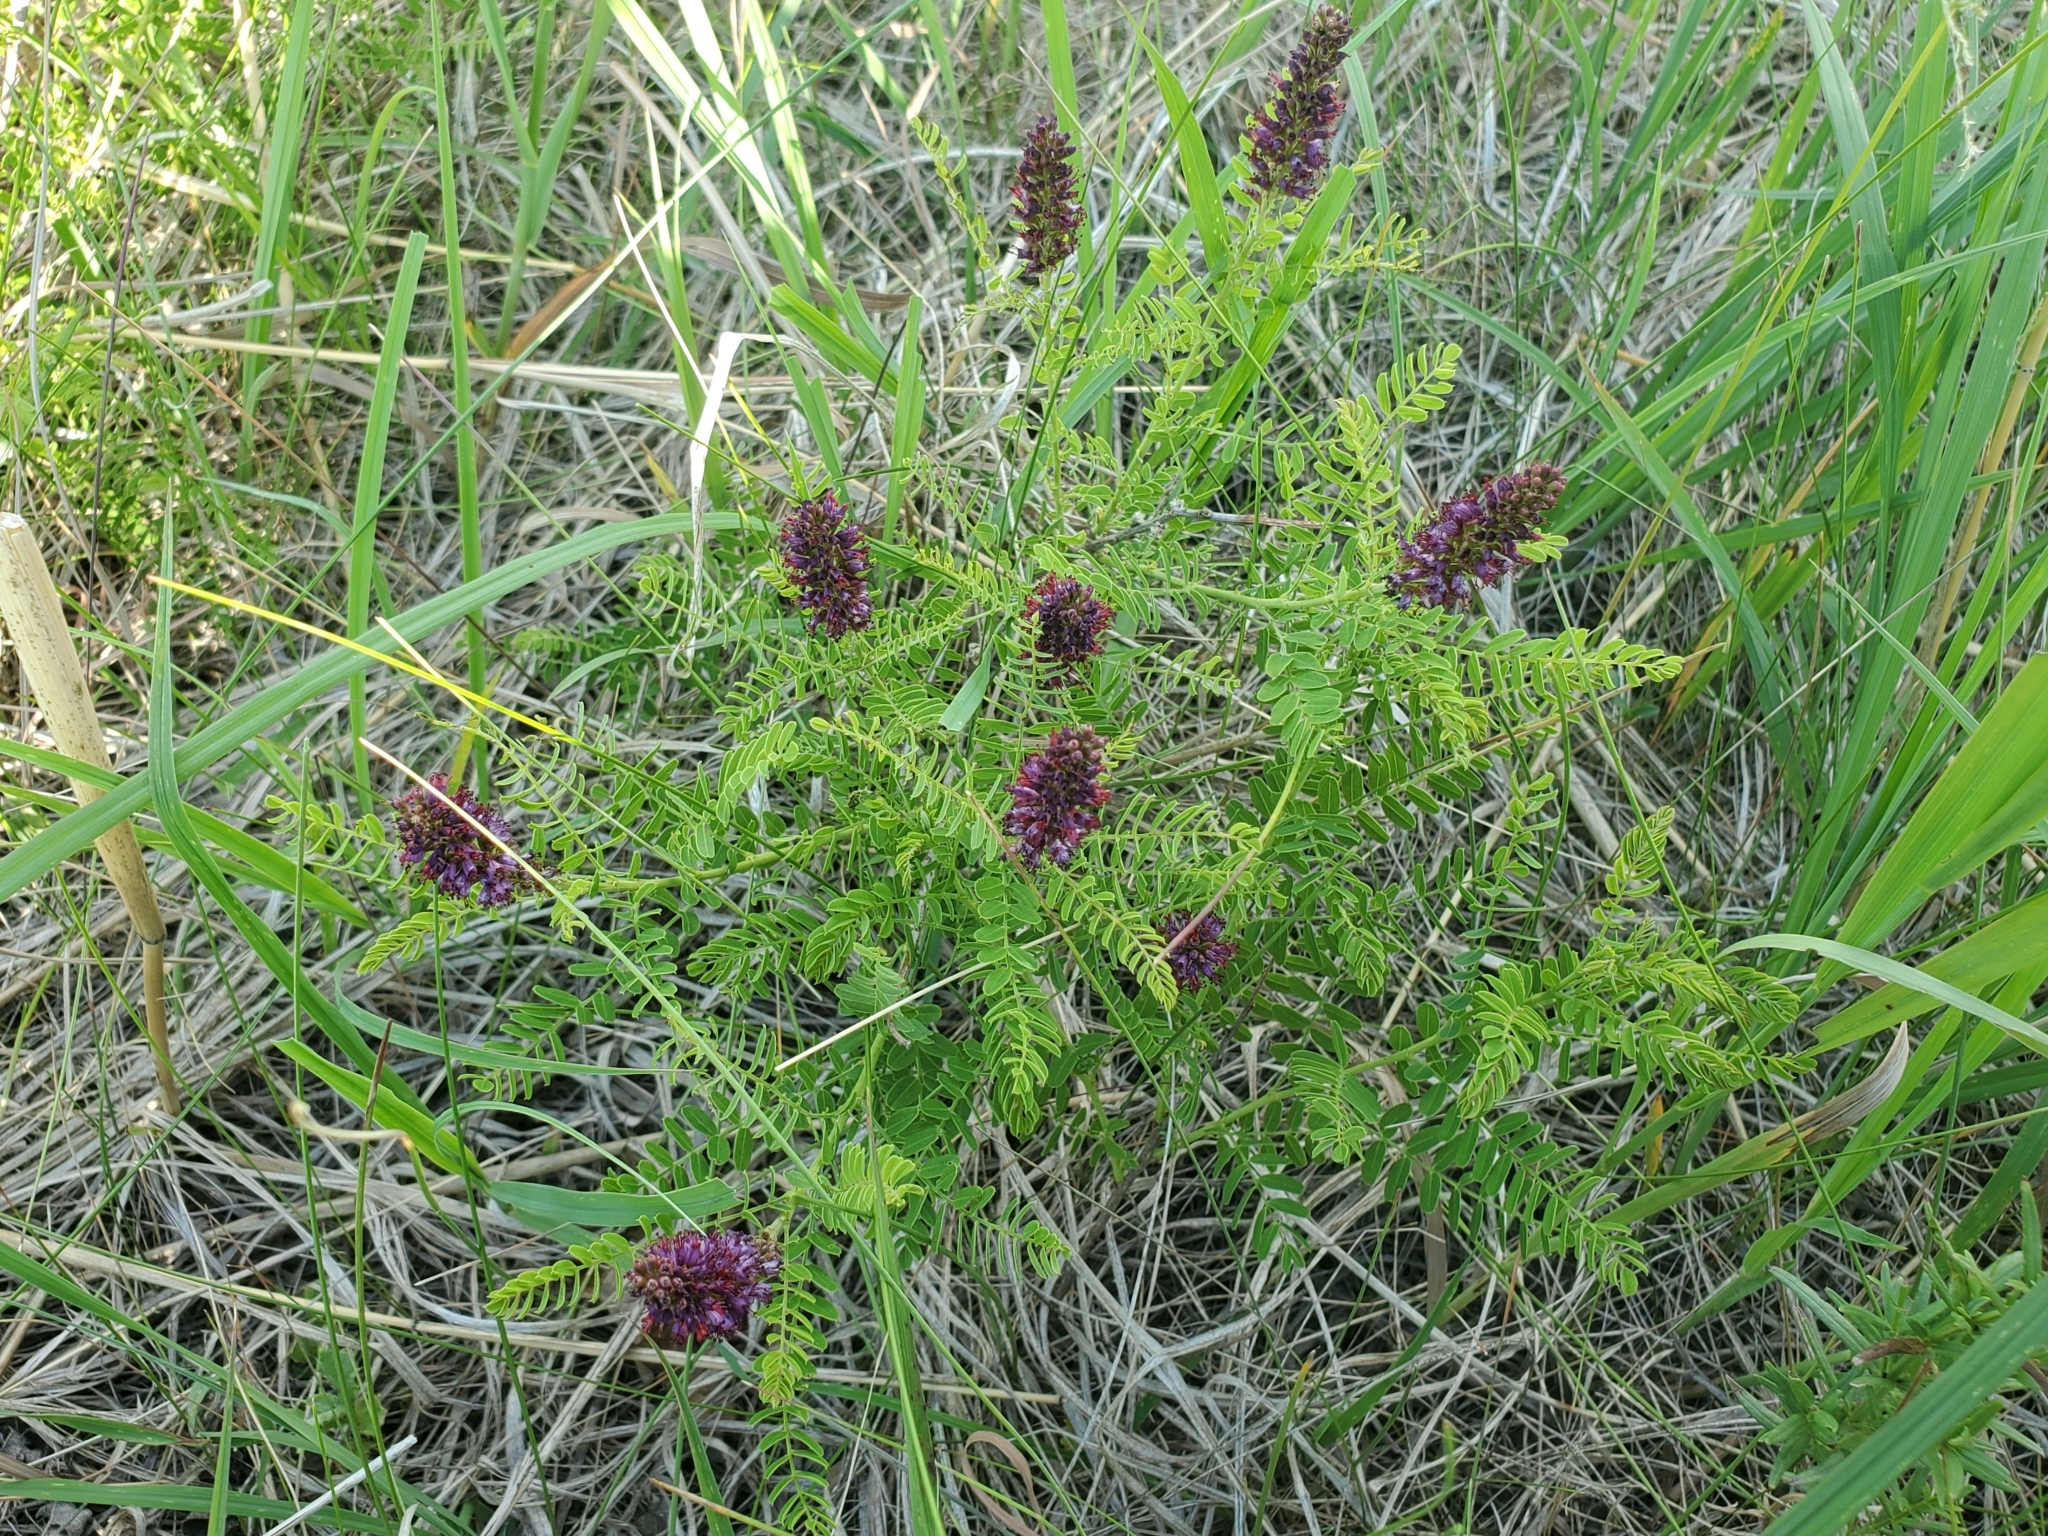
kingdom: Plantae
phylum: Tracheophyta
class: Magnoliopsida
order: Fabales
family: Fabaceae
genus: Amorpha
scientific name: Amorpha nana
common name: Fragrant false indigo
